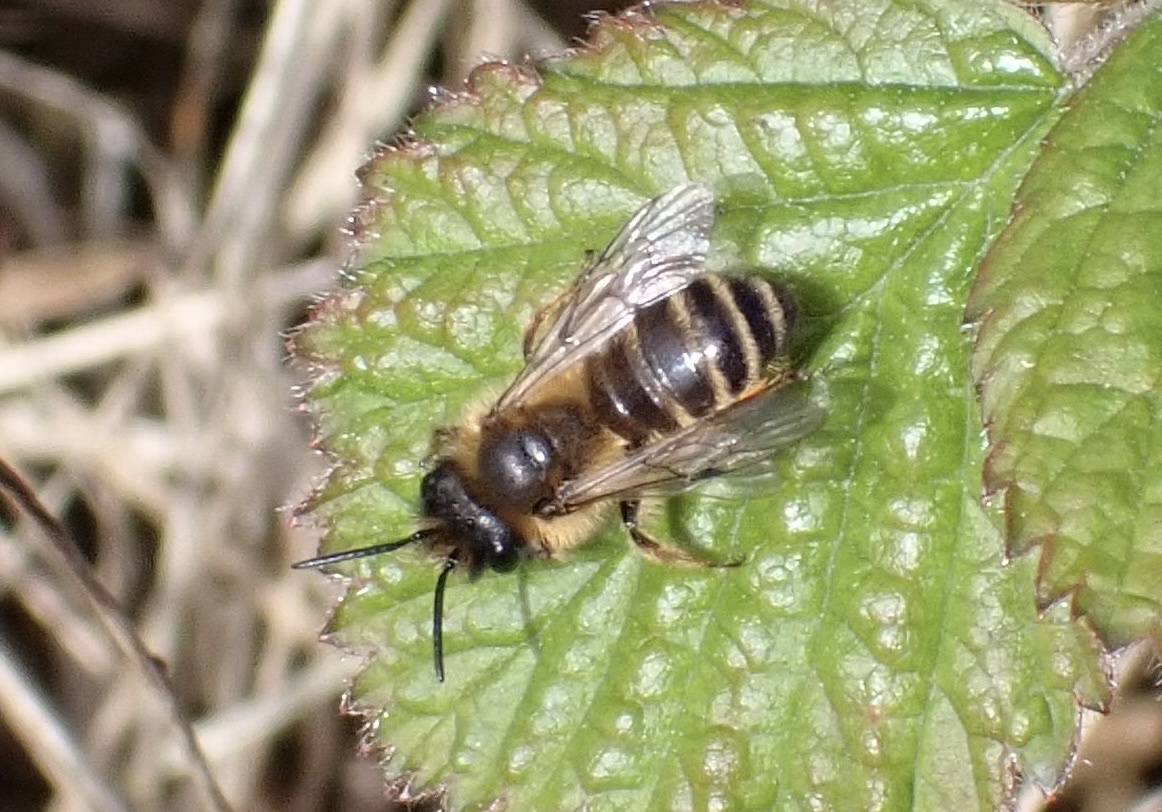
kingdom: Animalia
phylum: Arthropoda
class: Insecta
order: Hymenoptera
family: Andrenidae
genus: Andrena
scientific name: Andrena flavipes
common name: Yellow-legged mining bee
